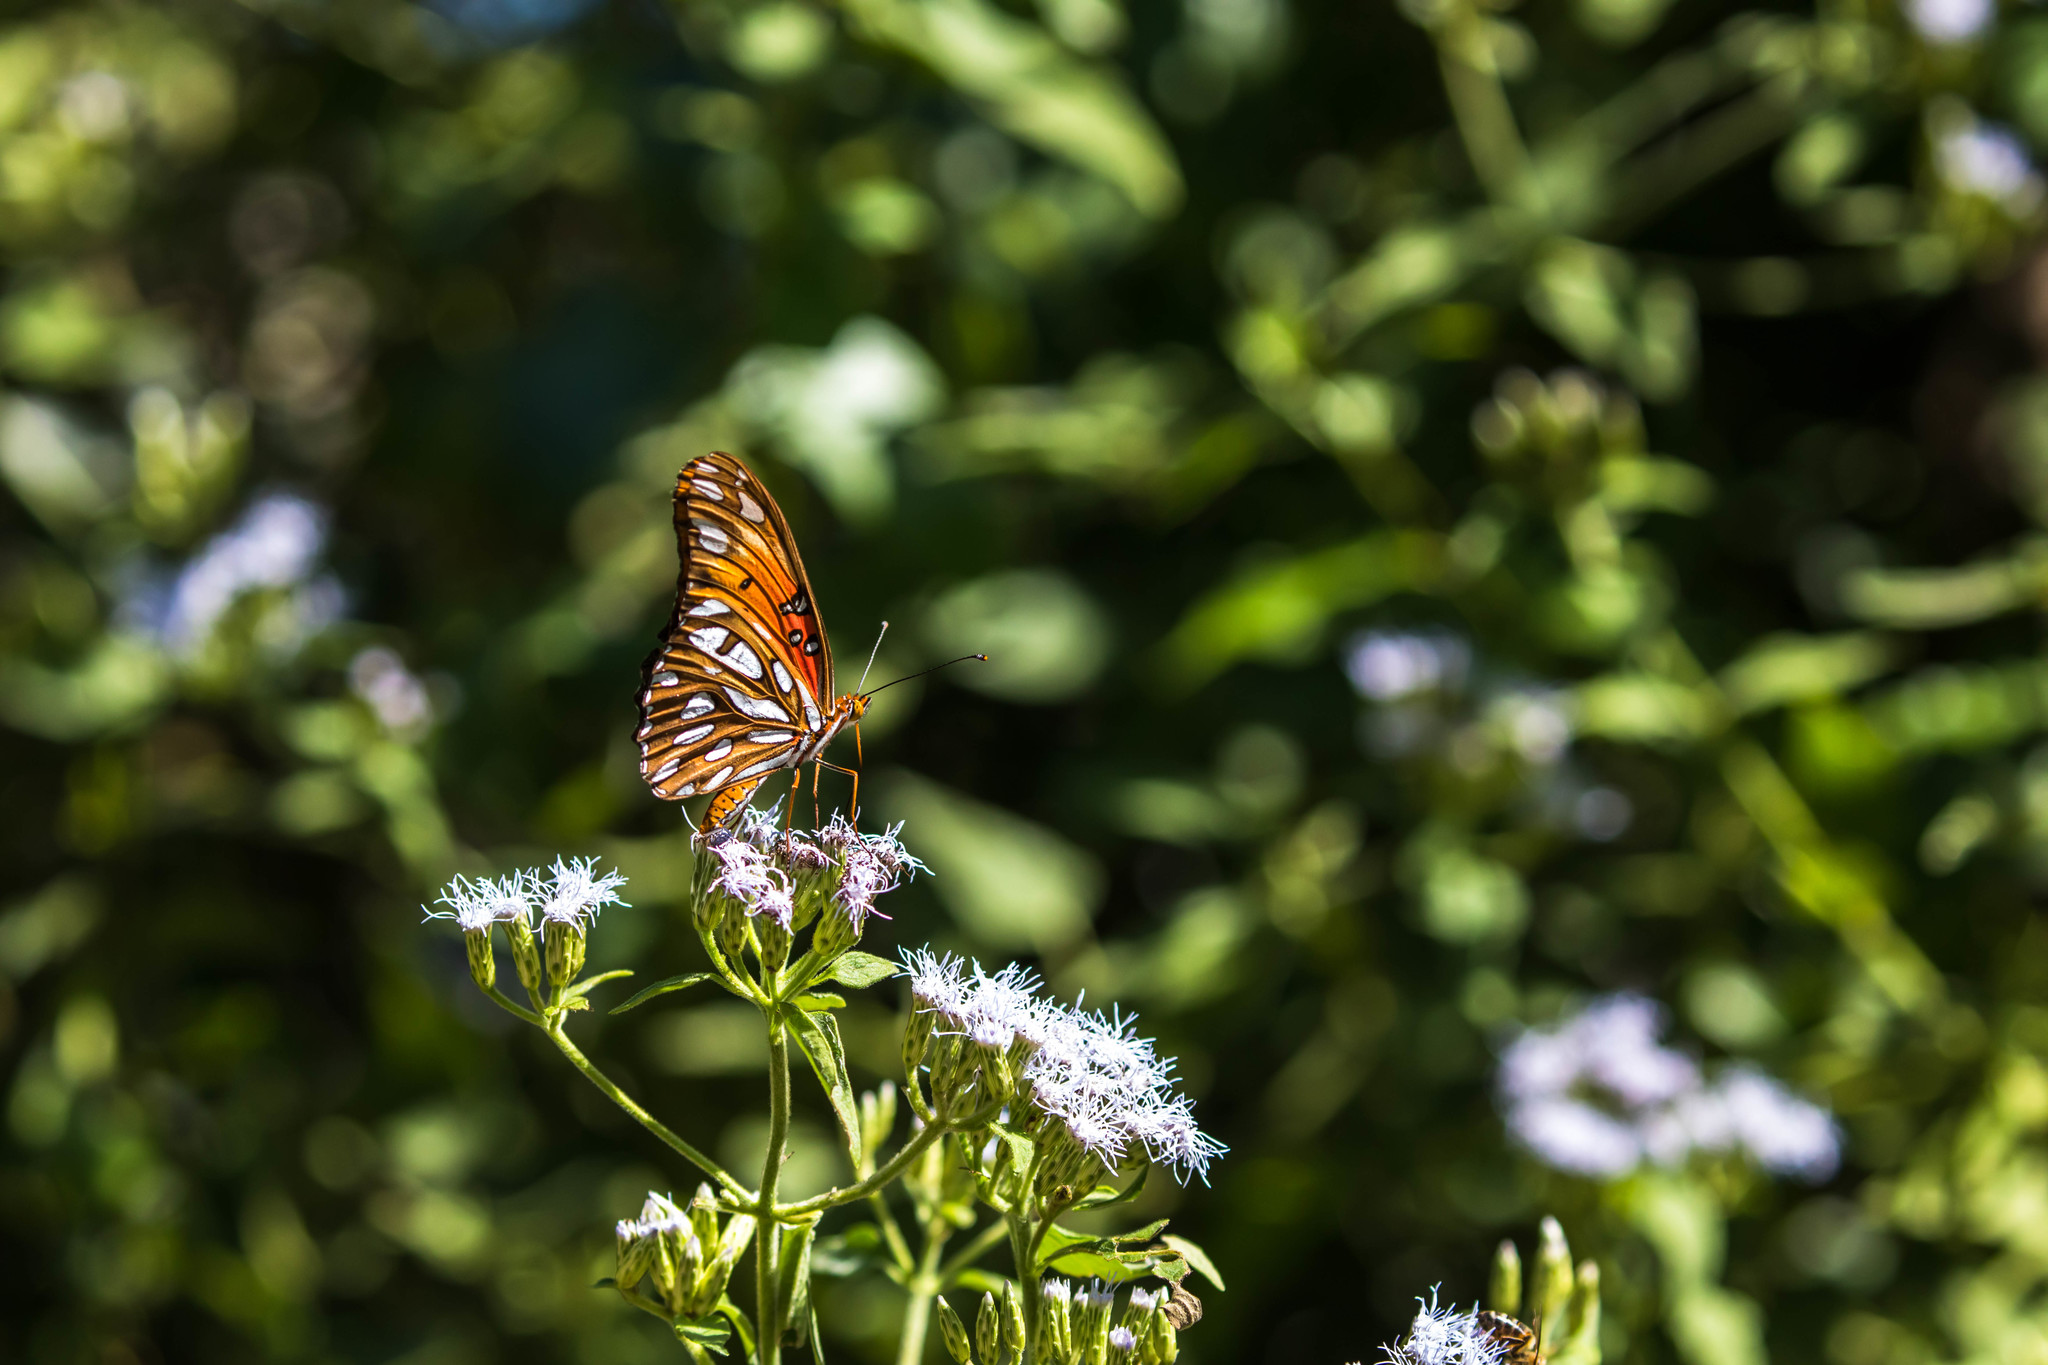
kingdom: Animalia
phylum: Arthropoda
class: Insecta
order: Lepidoptera
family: Nymphalidae
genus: Dione
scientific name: Dione vanillae
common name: Gulf fritillary
